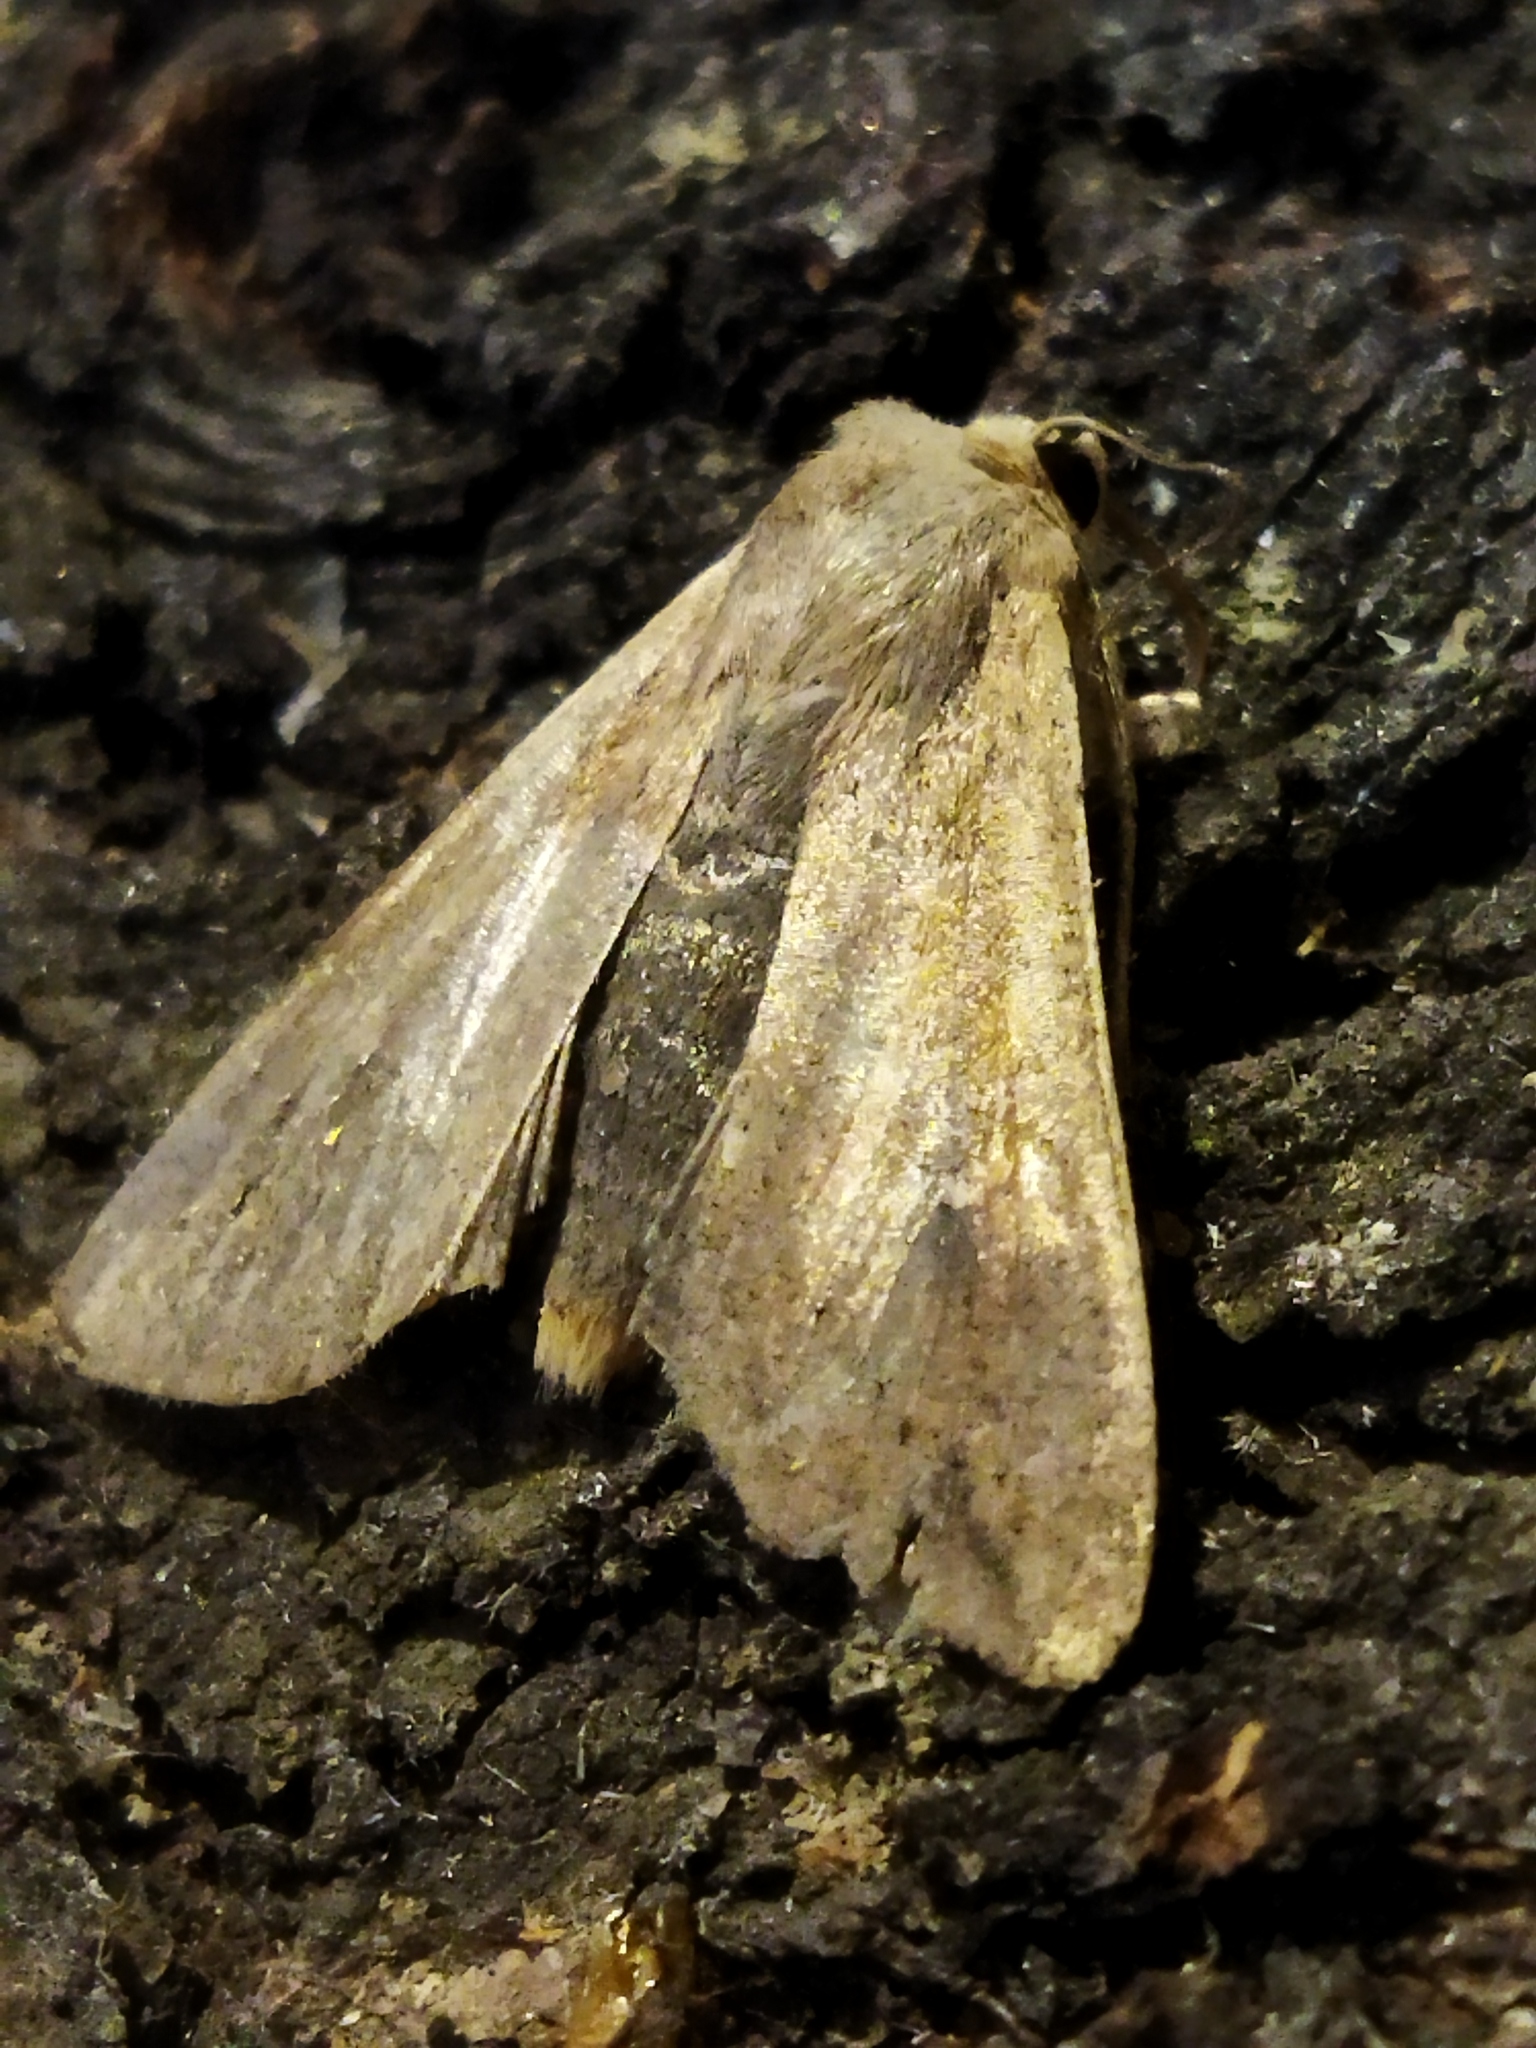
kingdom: Animalia
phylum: Arthropoda
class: Insecta
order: Lepidoptera
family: Noctuidae
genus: Mythimna
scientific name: Mythimna unipuncta
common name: White-speck
